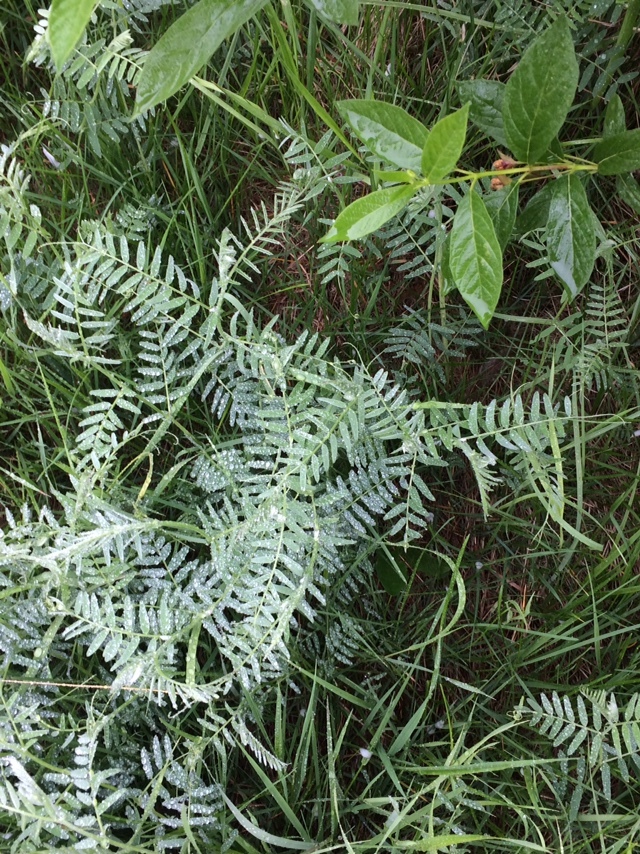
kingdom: Plantae
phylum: Tracheophyta
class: Magnoliopsida
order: Fabales
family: Fabaceae
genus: Vicia
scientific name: Vicia hirsuta
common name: Tiny vetch
